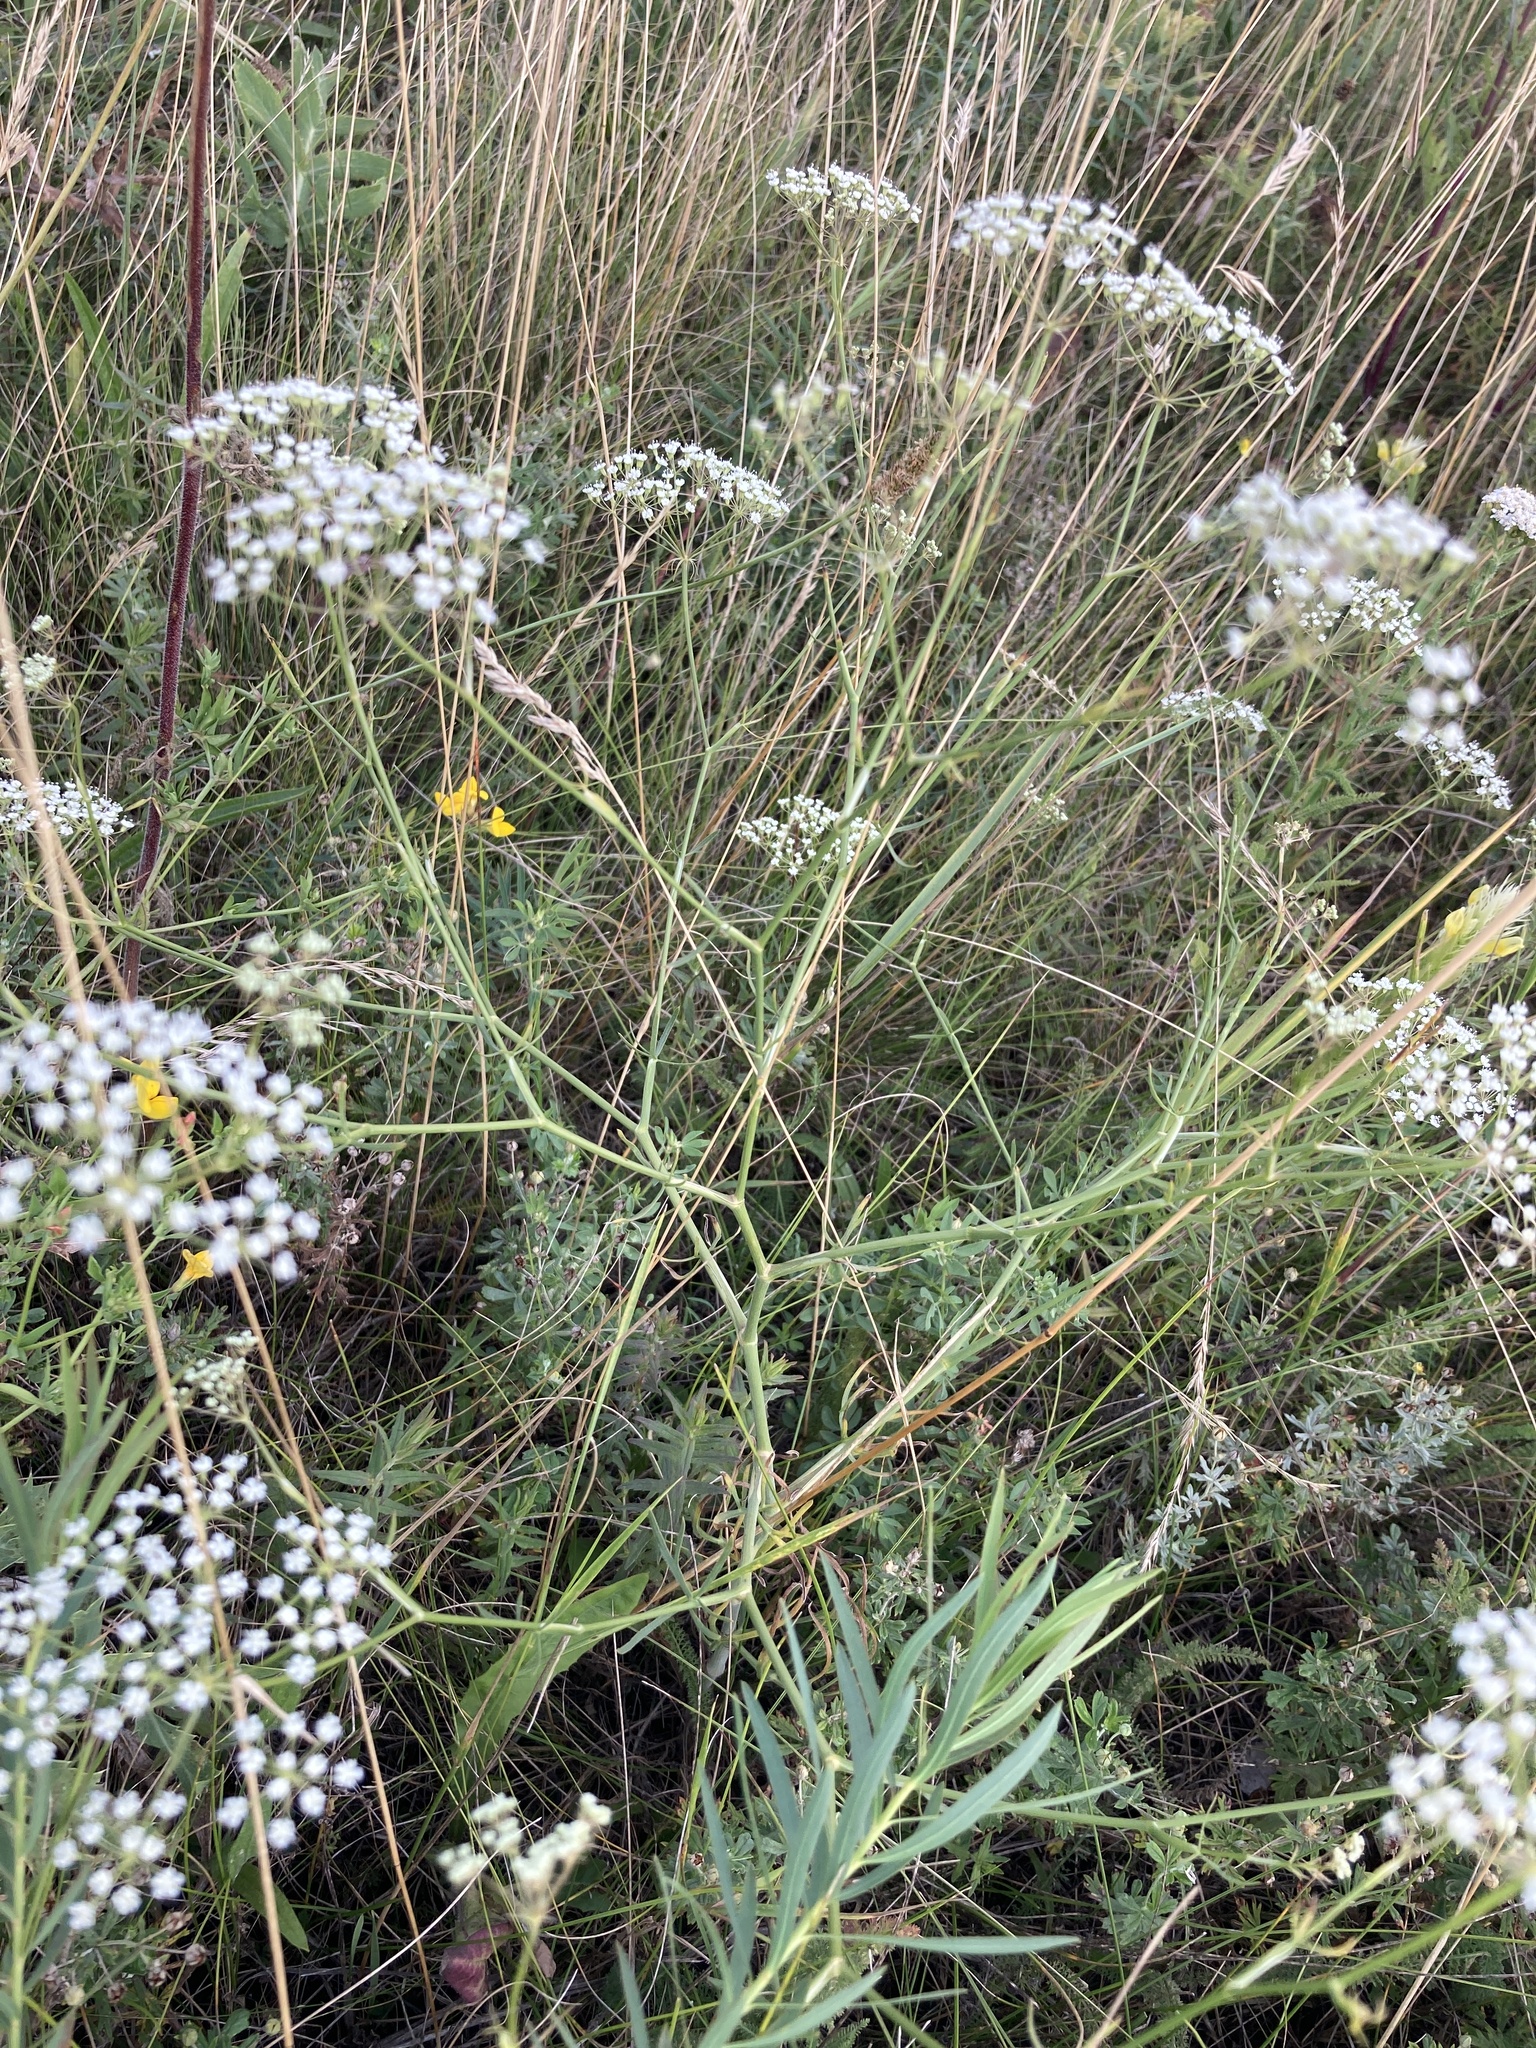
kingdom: Plantae
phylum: Tracheophyta
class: Magnoliopsida
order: Apiales
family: Apiaceae
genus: Falcaria
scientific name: Falcaria vulgaris
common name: Longleaf
